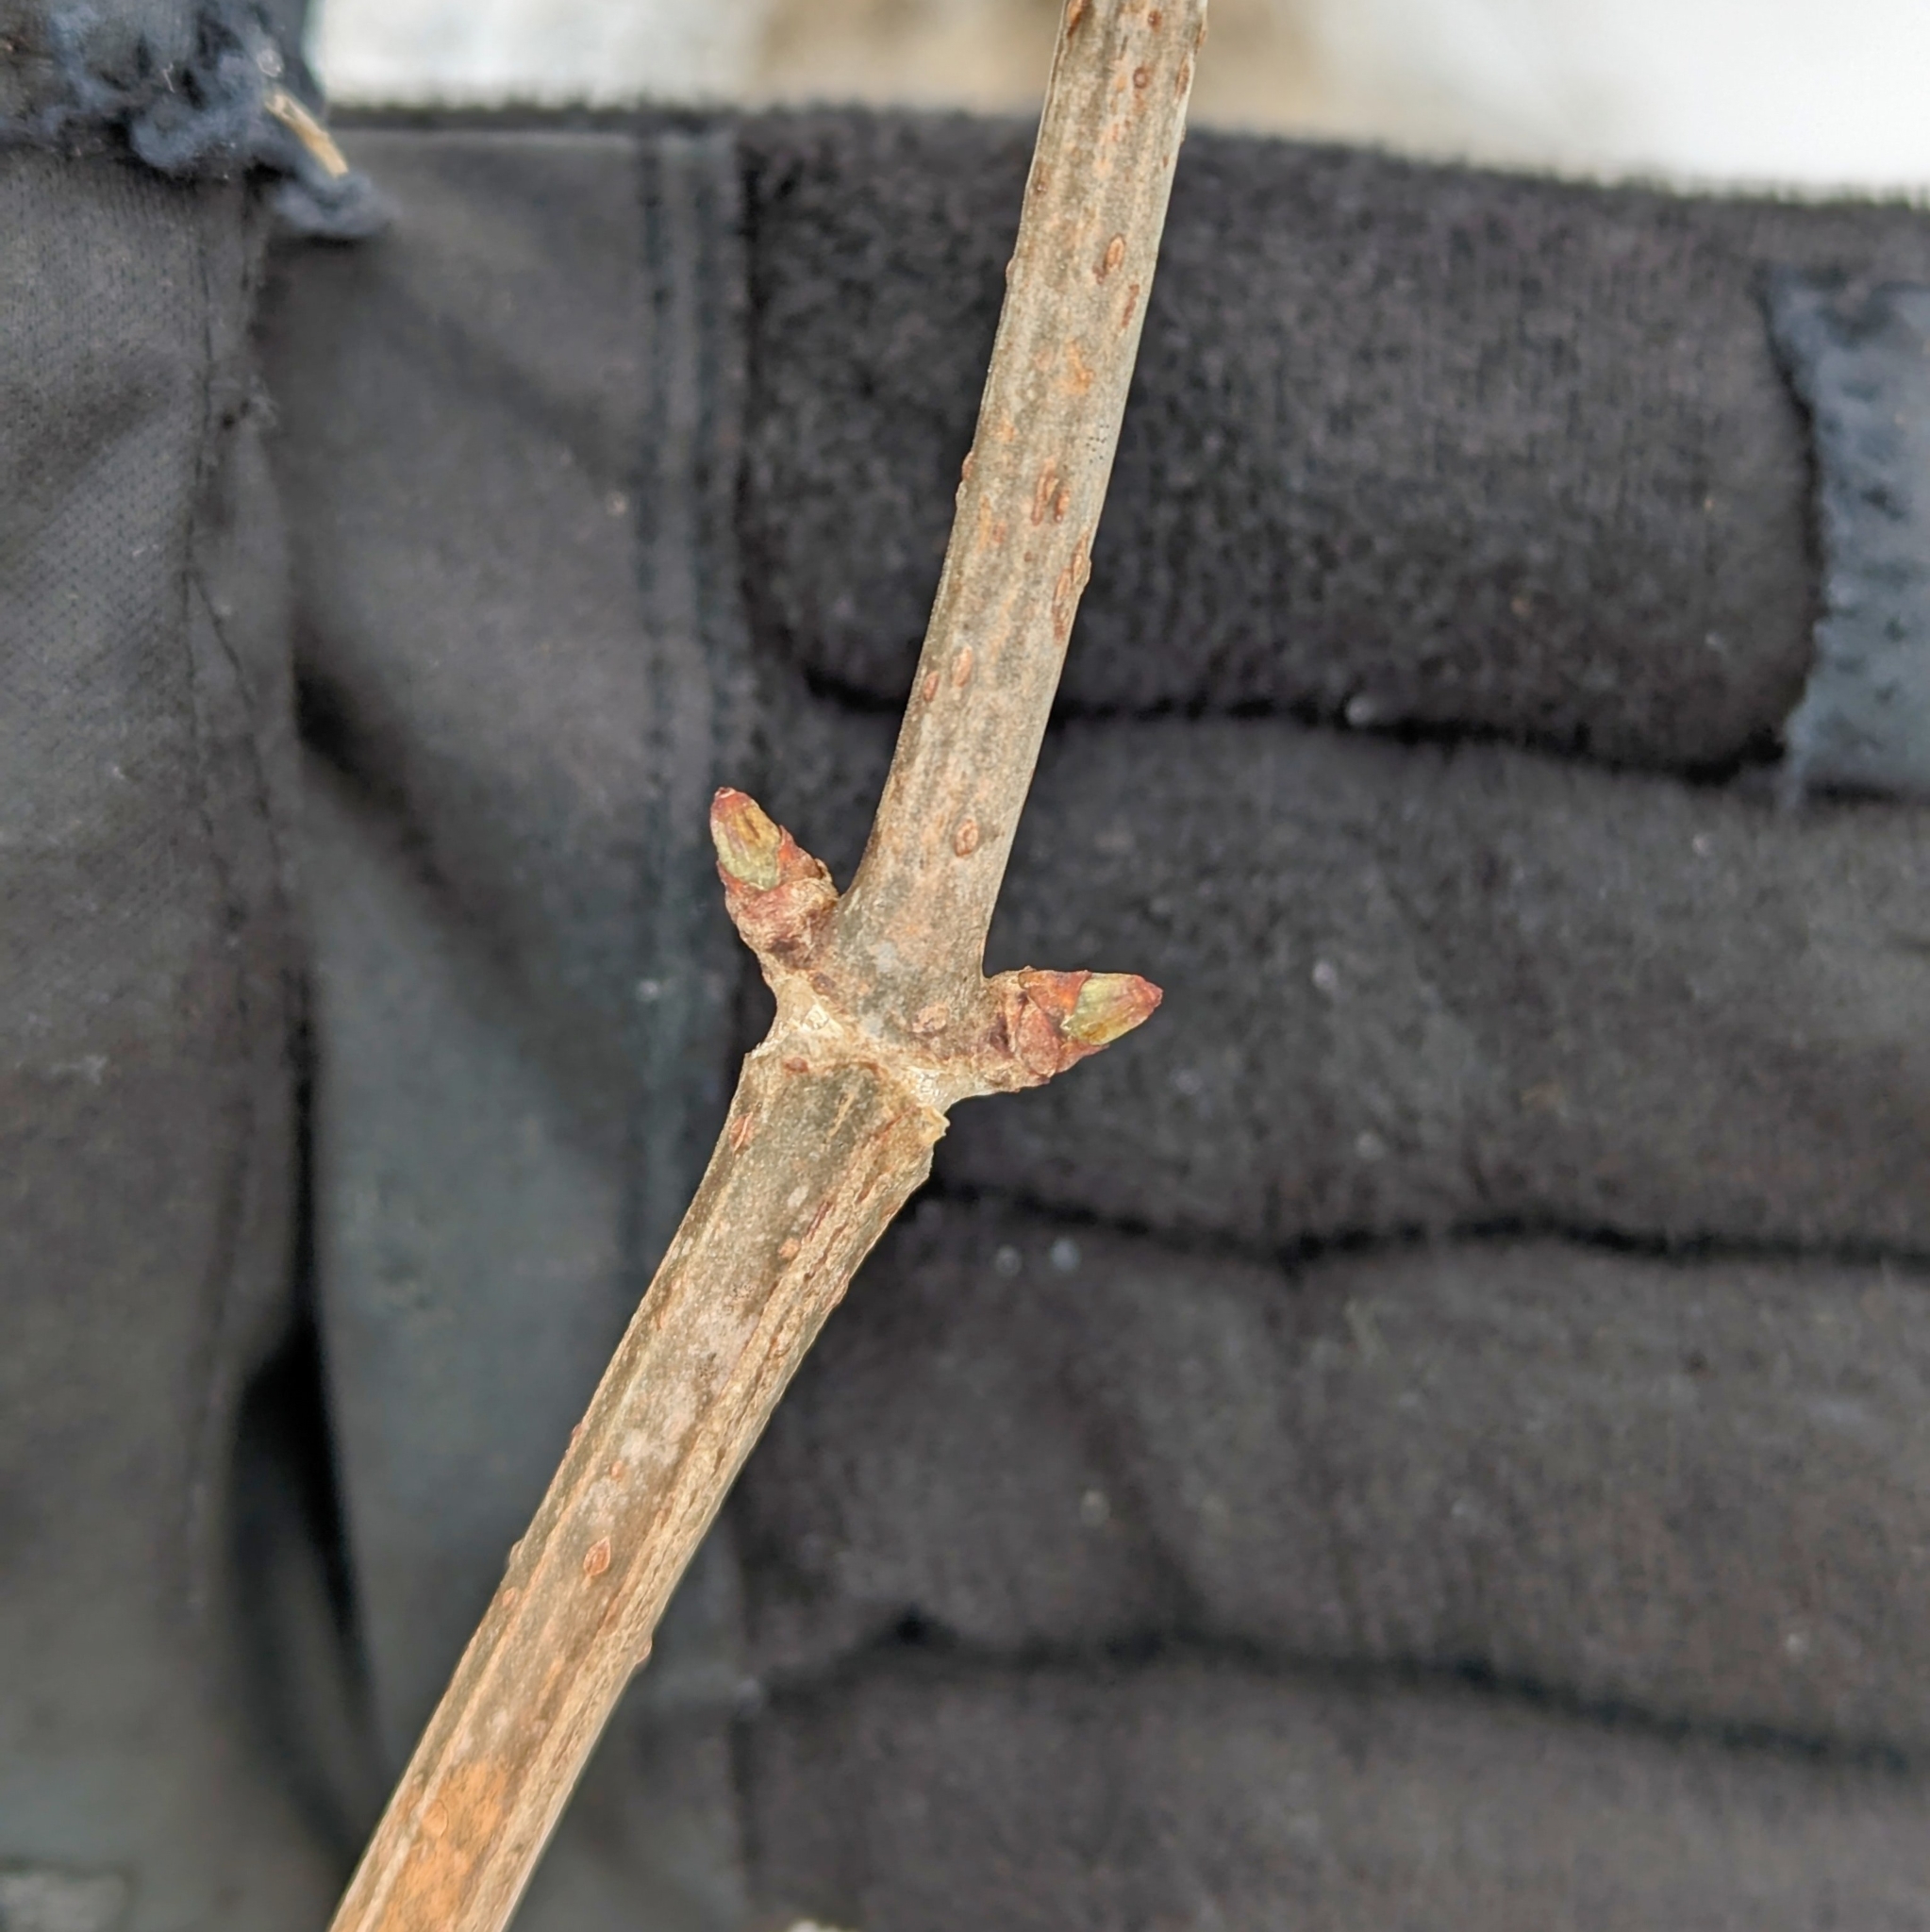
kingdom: Plantae
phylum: Tracheophyta
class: Magnoliopsida
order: Dipsacales
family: Viburnaceae
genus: Sambucus
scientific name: Sambucus canadensis
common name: American elder
